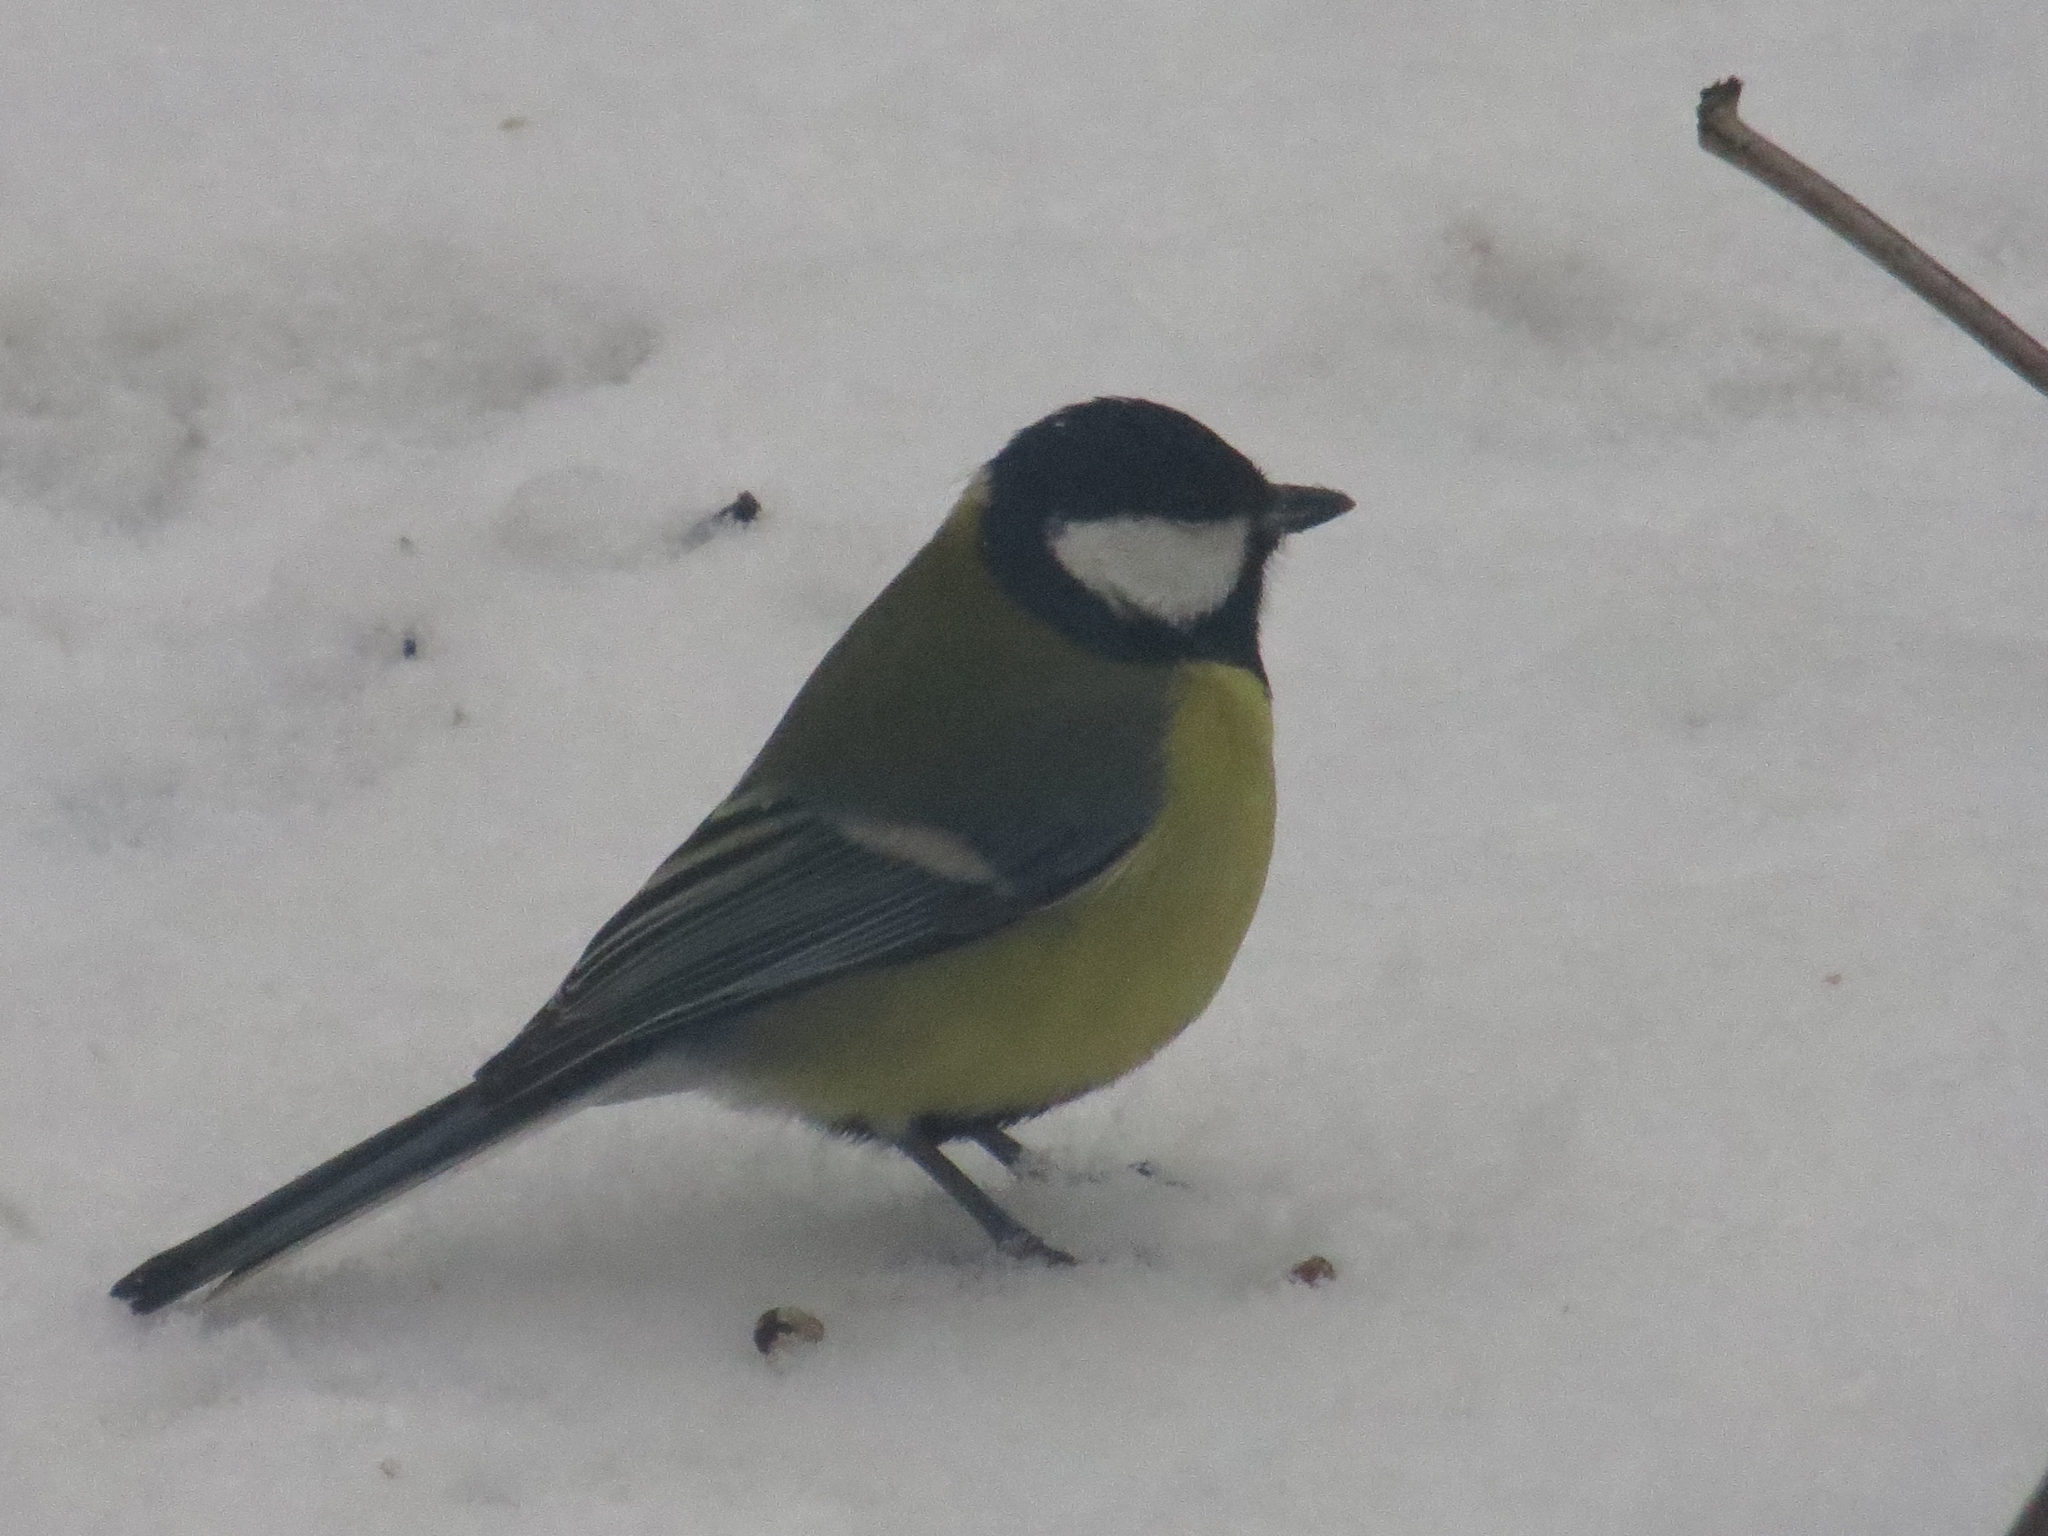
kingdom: Animalia
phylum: Chordata
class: Aves
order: Passeriformes
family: Paridae
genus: Parus
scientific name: Parus major
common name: Great tit
